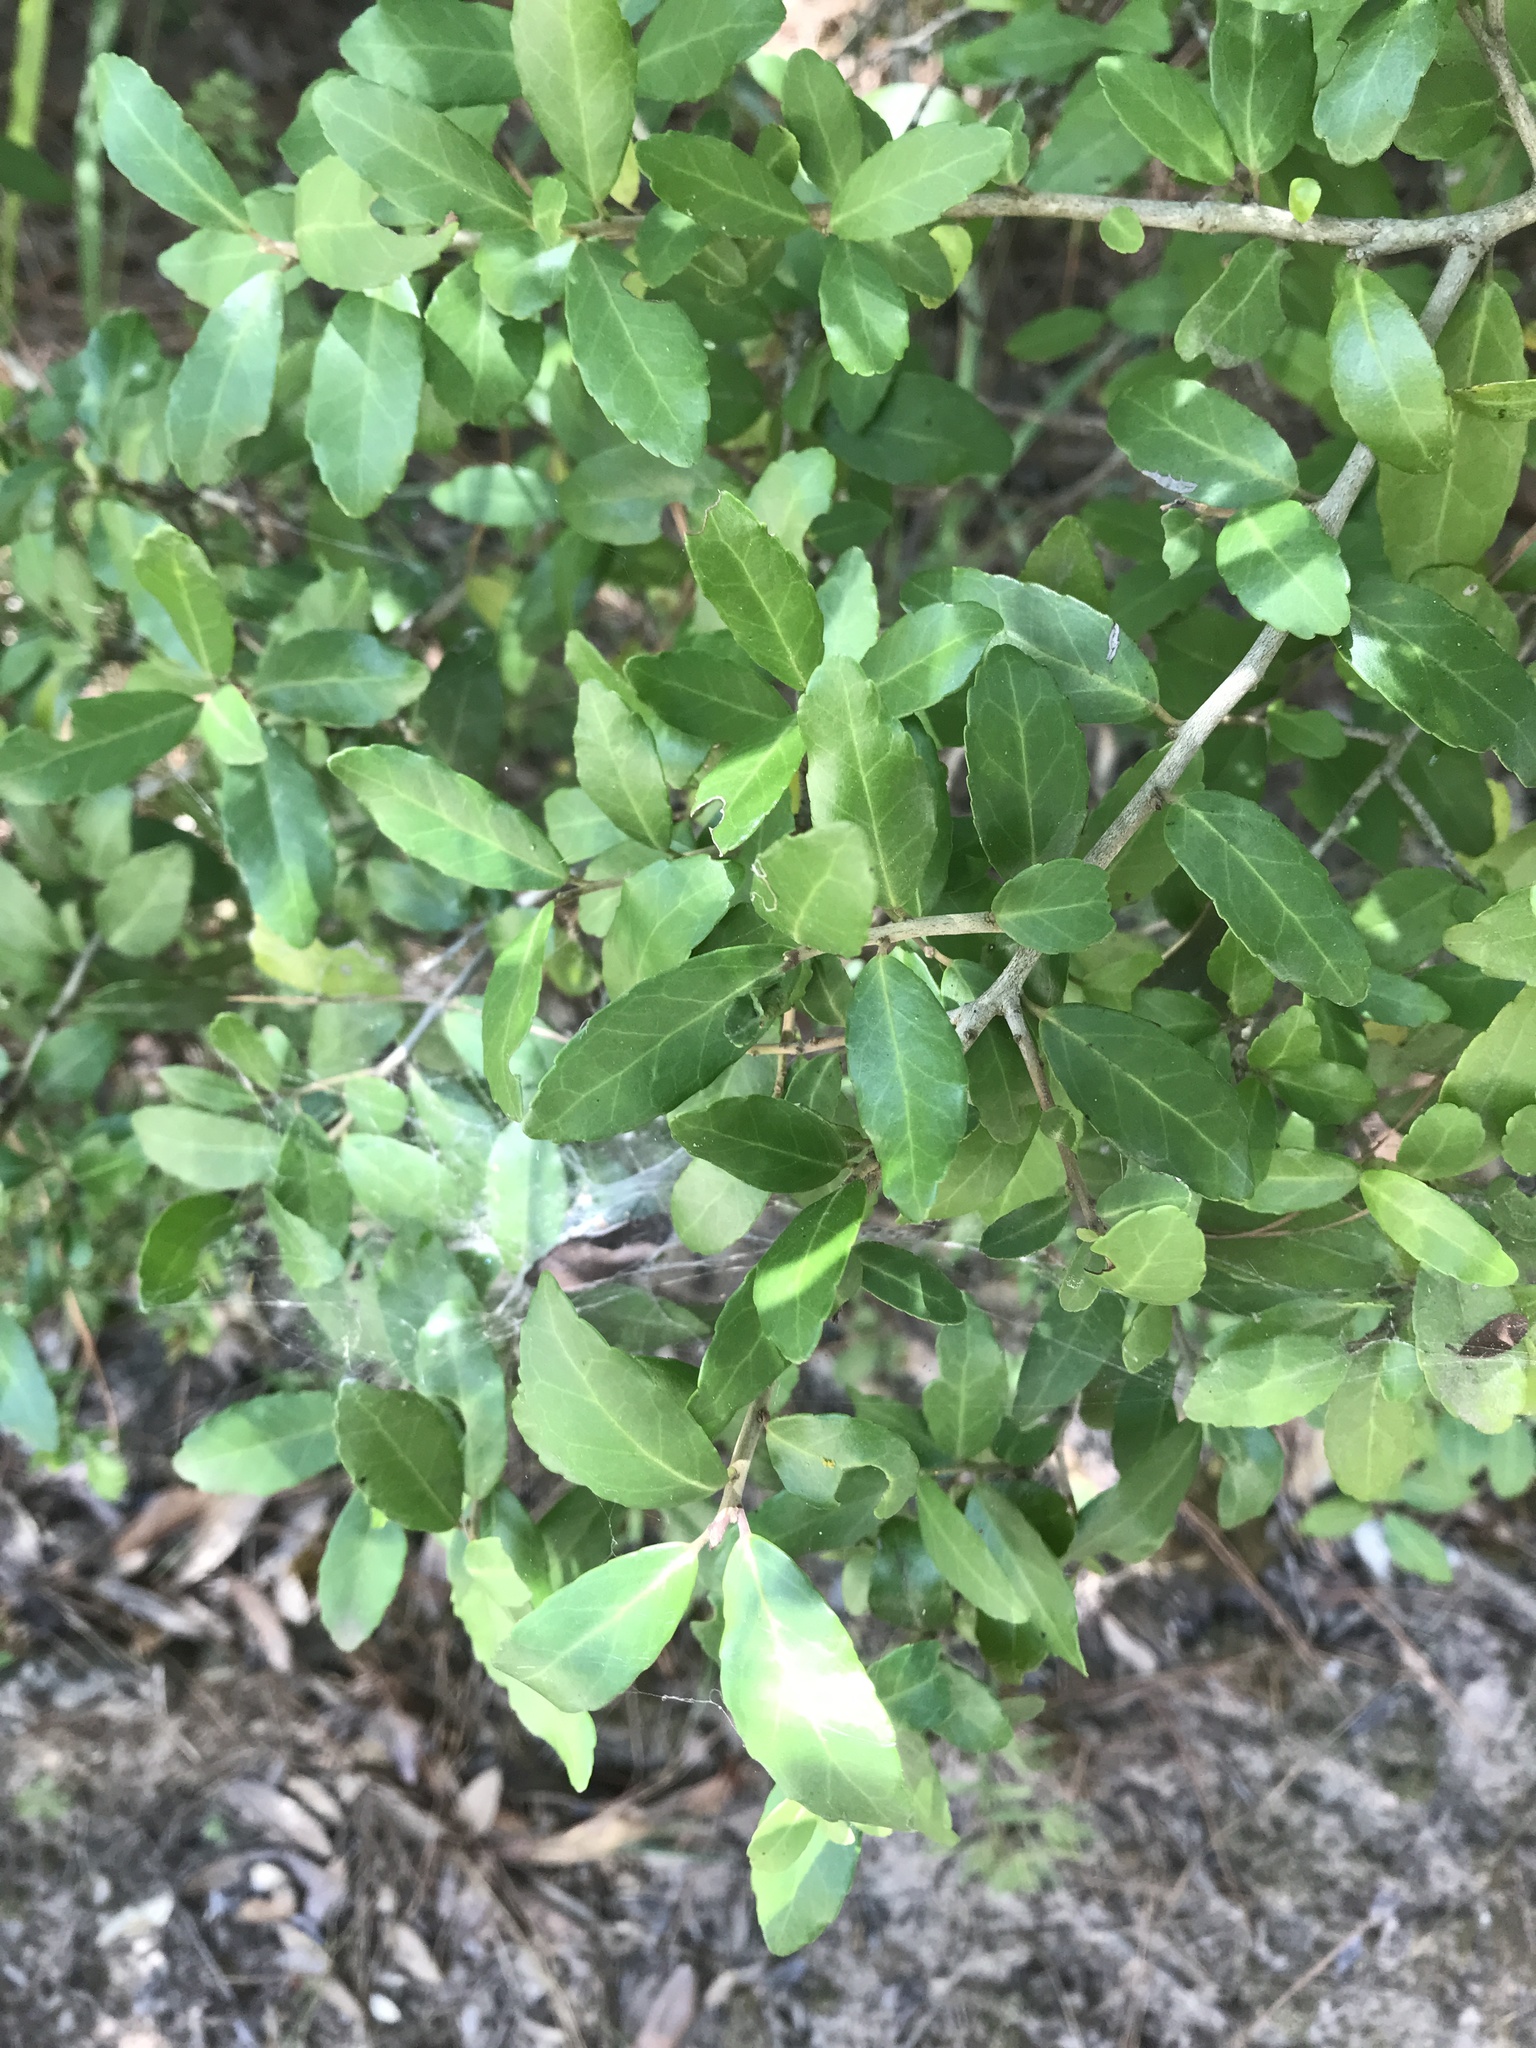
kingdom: Plantae
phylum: Tracheophyta
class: Magnoliopsida
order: Aquifoliales
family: Aquifoliaceae
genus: Ilex
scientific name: Ilex vomitoria
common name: Yaupon holly
